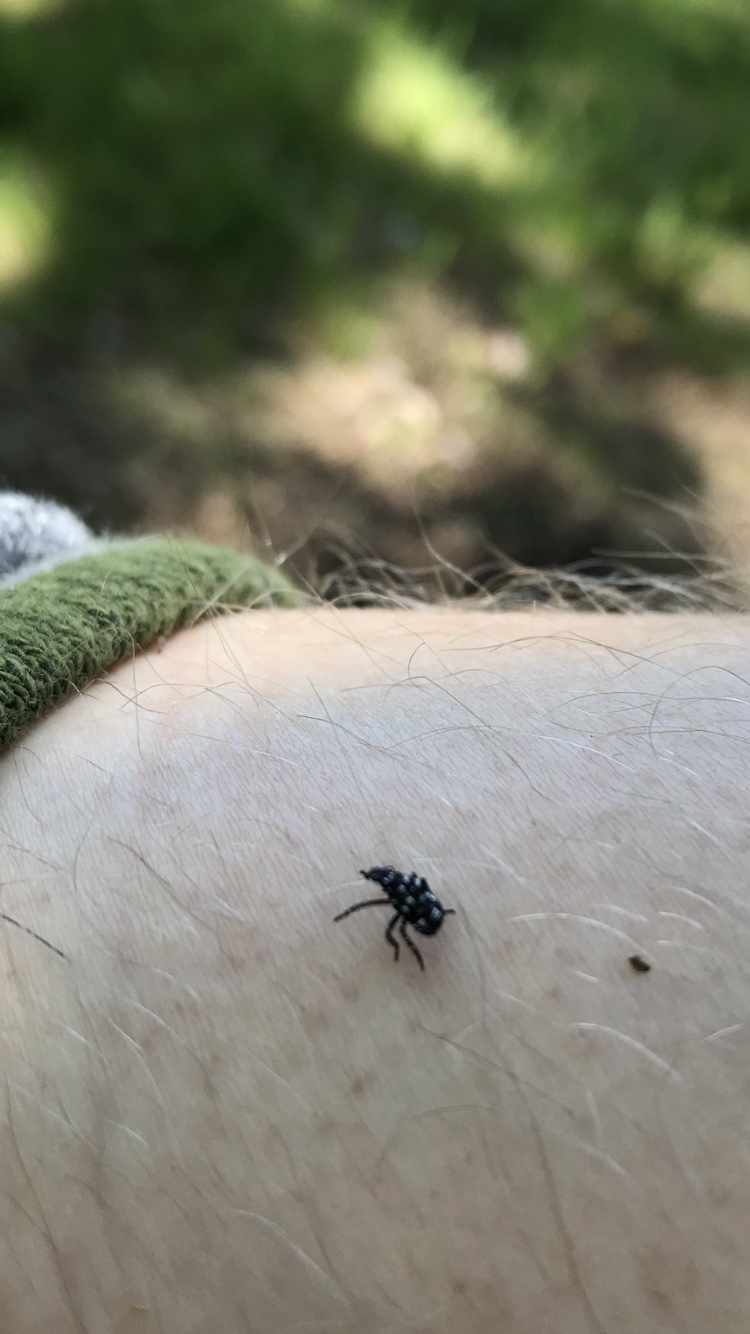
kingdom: Animalia
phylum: Arthropoda
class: Insecta
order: Hemiptera
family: Fulgoridae
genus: Lycorma
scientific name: Lycorma delicatula
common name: Spotted lanternfly
